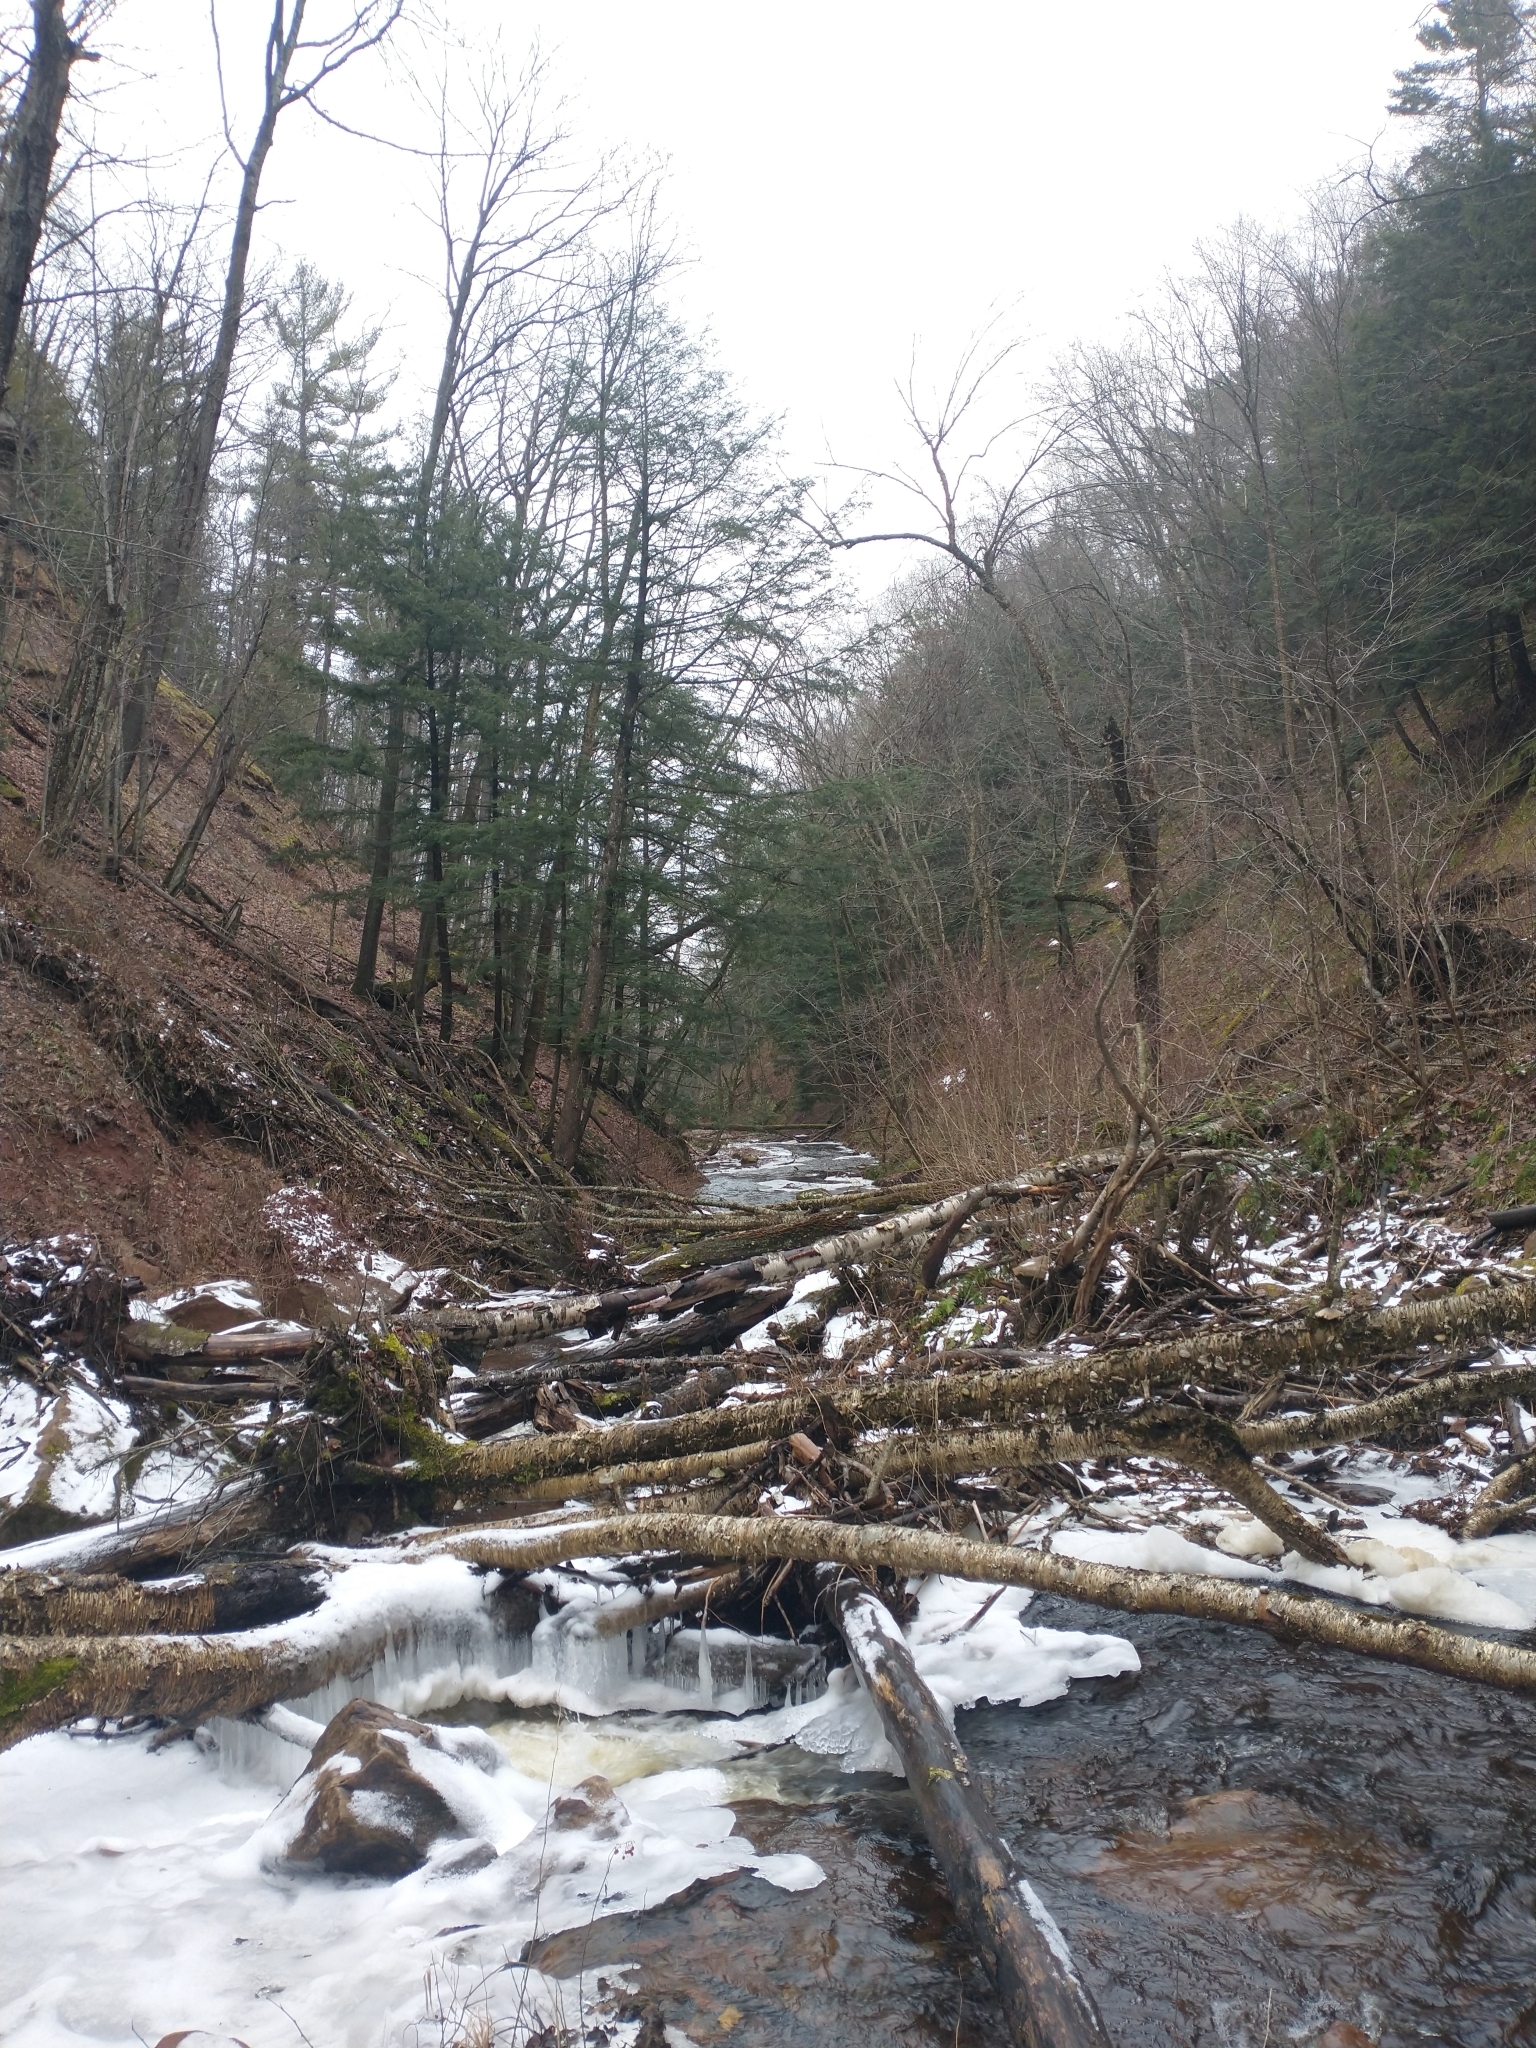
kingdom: Plantae
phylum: Tracheophyta
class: Pinopsida
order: Pinales
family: Pinaceae
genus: Tsuga
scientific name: Tsuga canadensis
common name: Eastern hemlock
